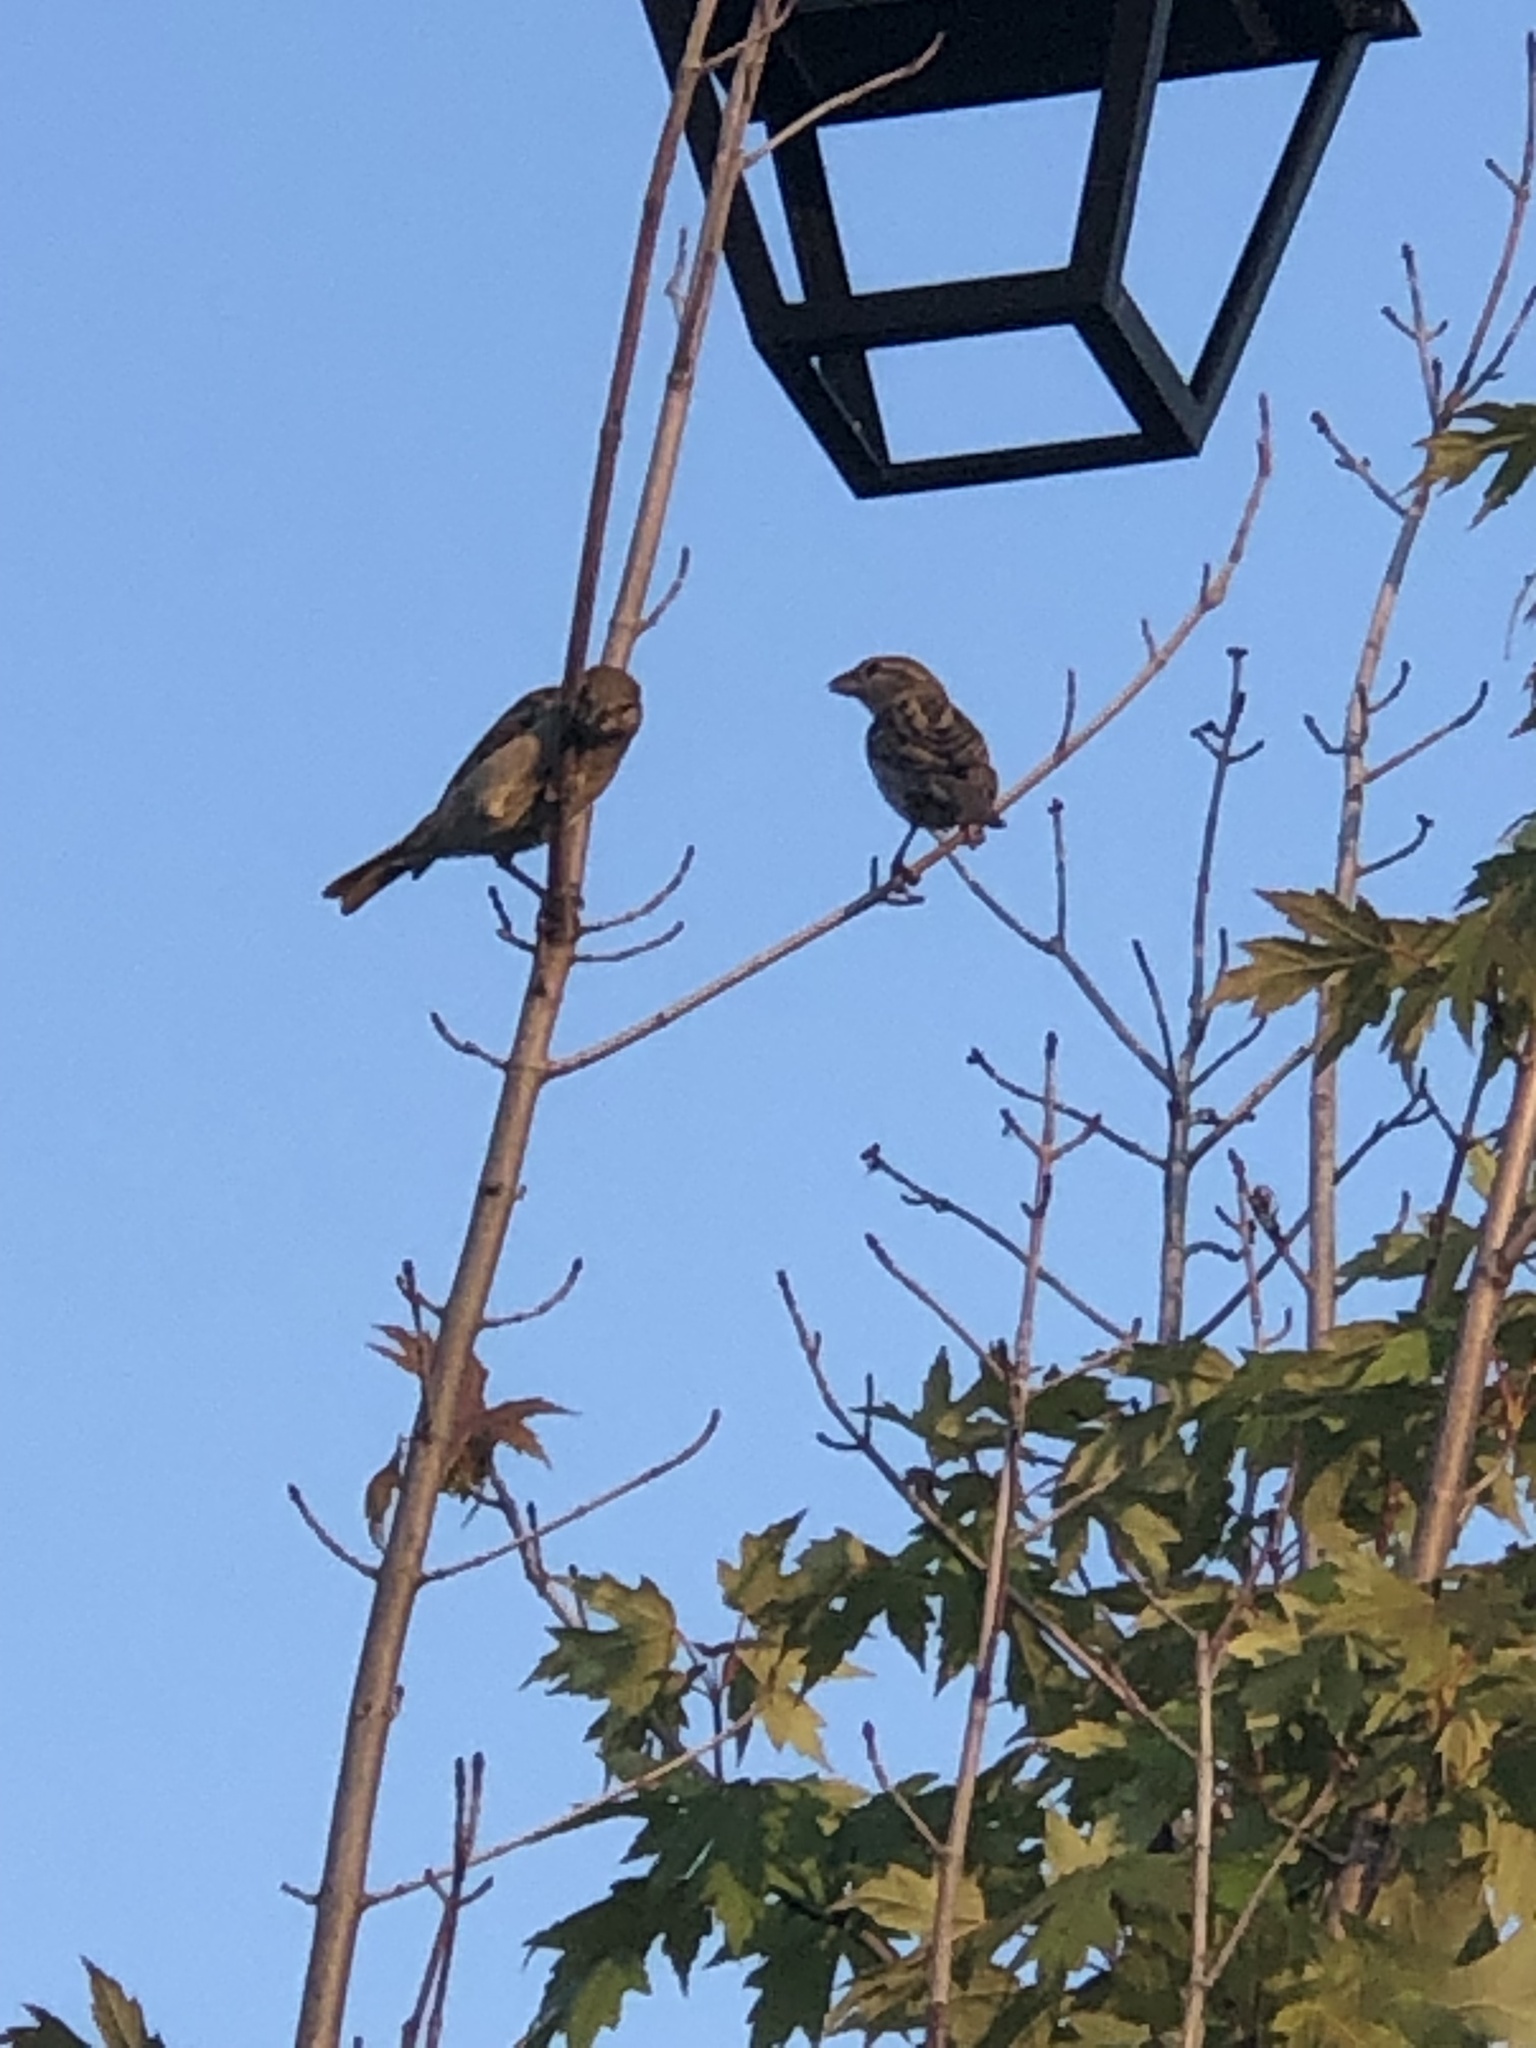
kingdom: Animalia
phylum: Chordata
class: Aves
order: Passeriformes
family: Passeridae
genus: Passer
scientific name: Passer domesticus
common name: House sparrow
